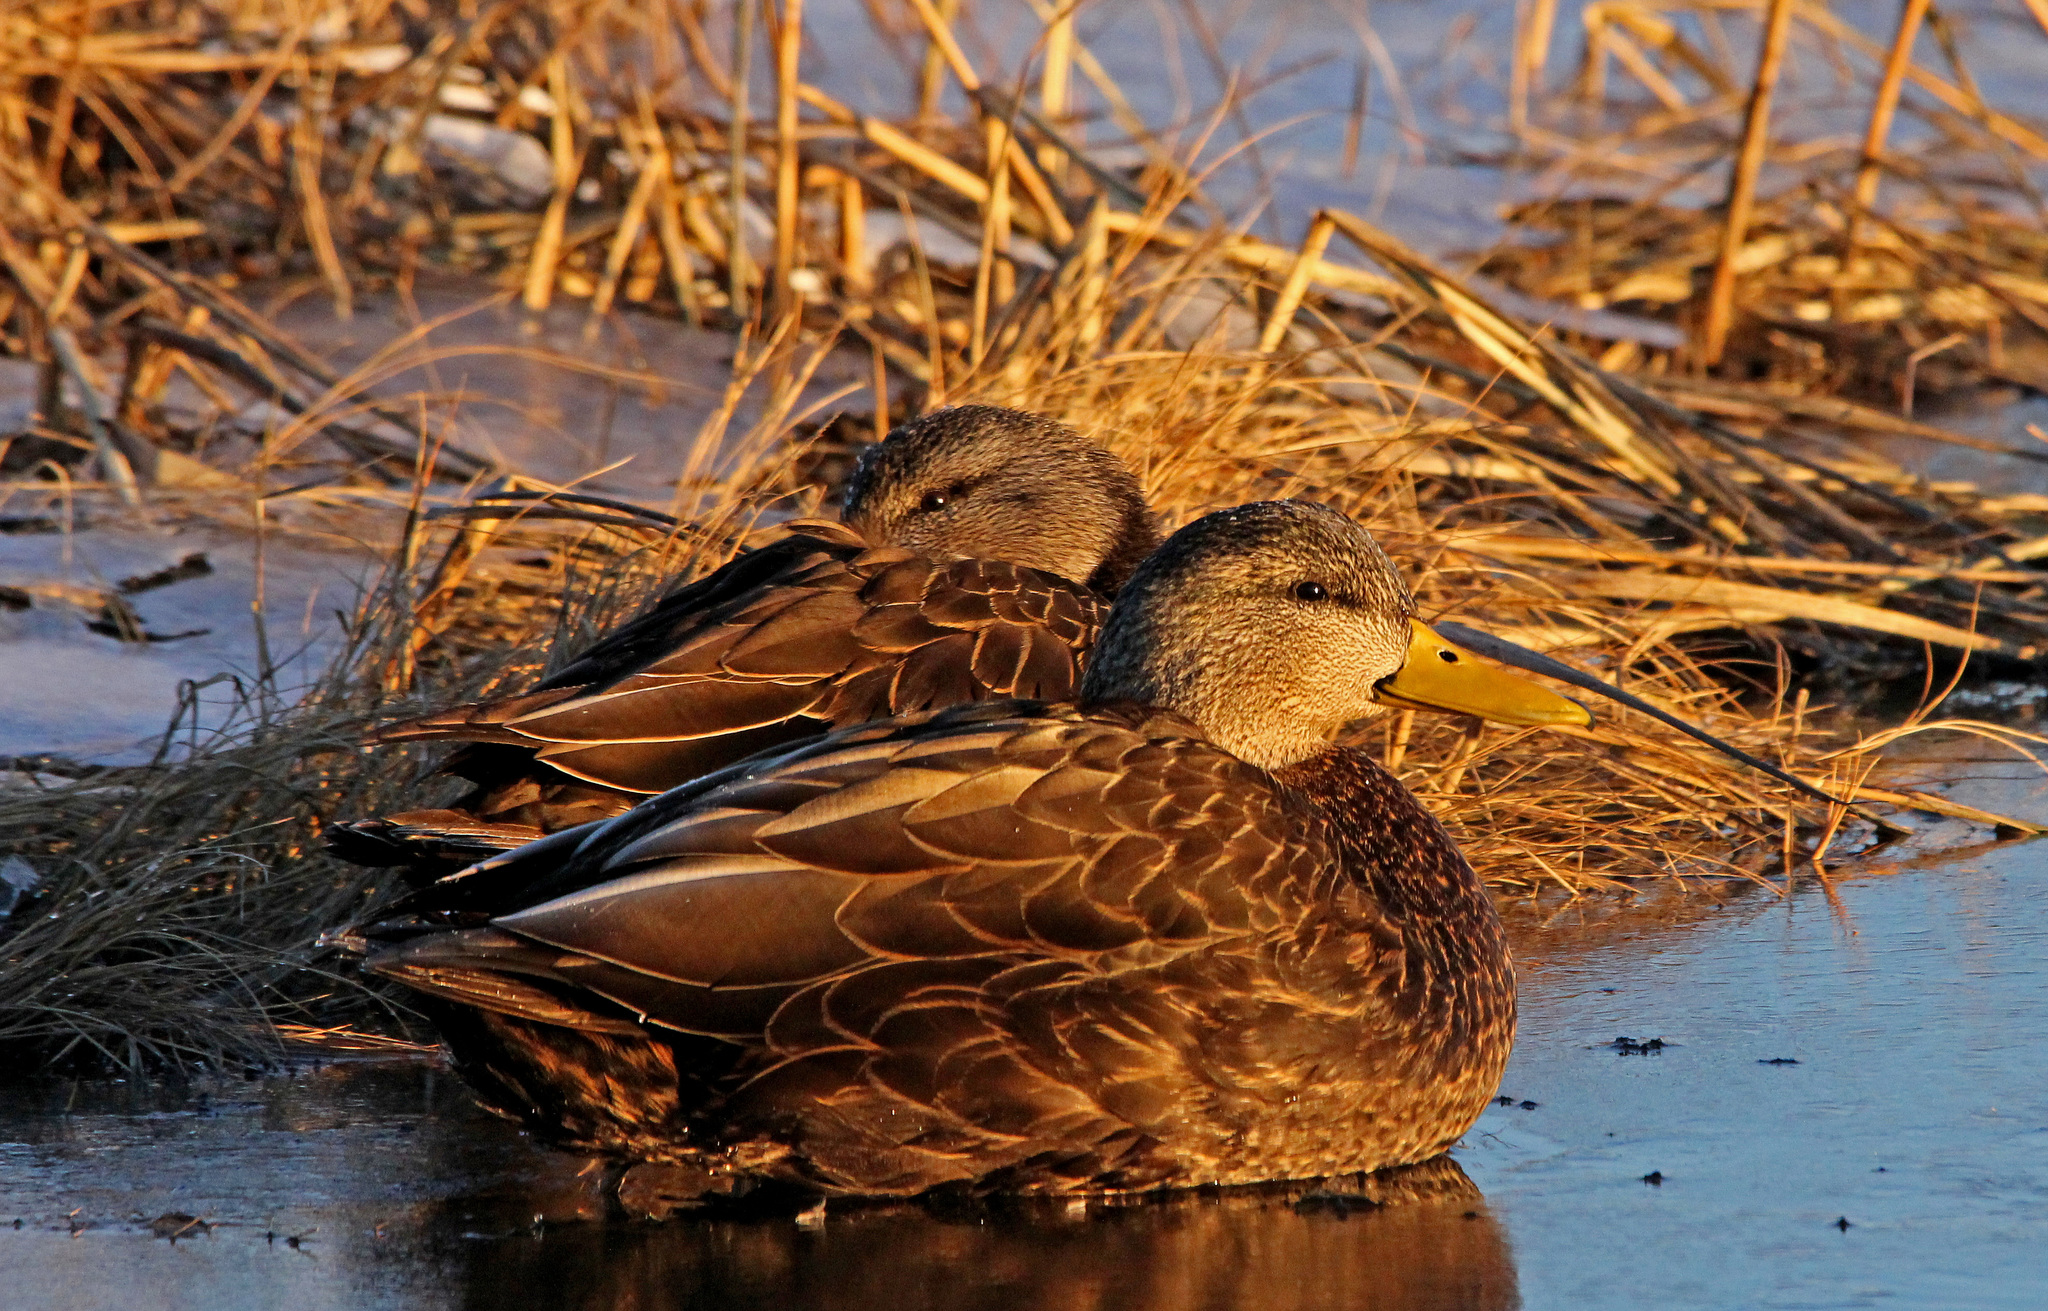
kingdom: Animalia
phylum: Chordata
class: Aves
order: Anseriformes
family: Anatidae
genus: Anas
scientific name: Anas rubripes
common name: American black duck
